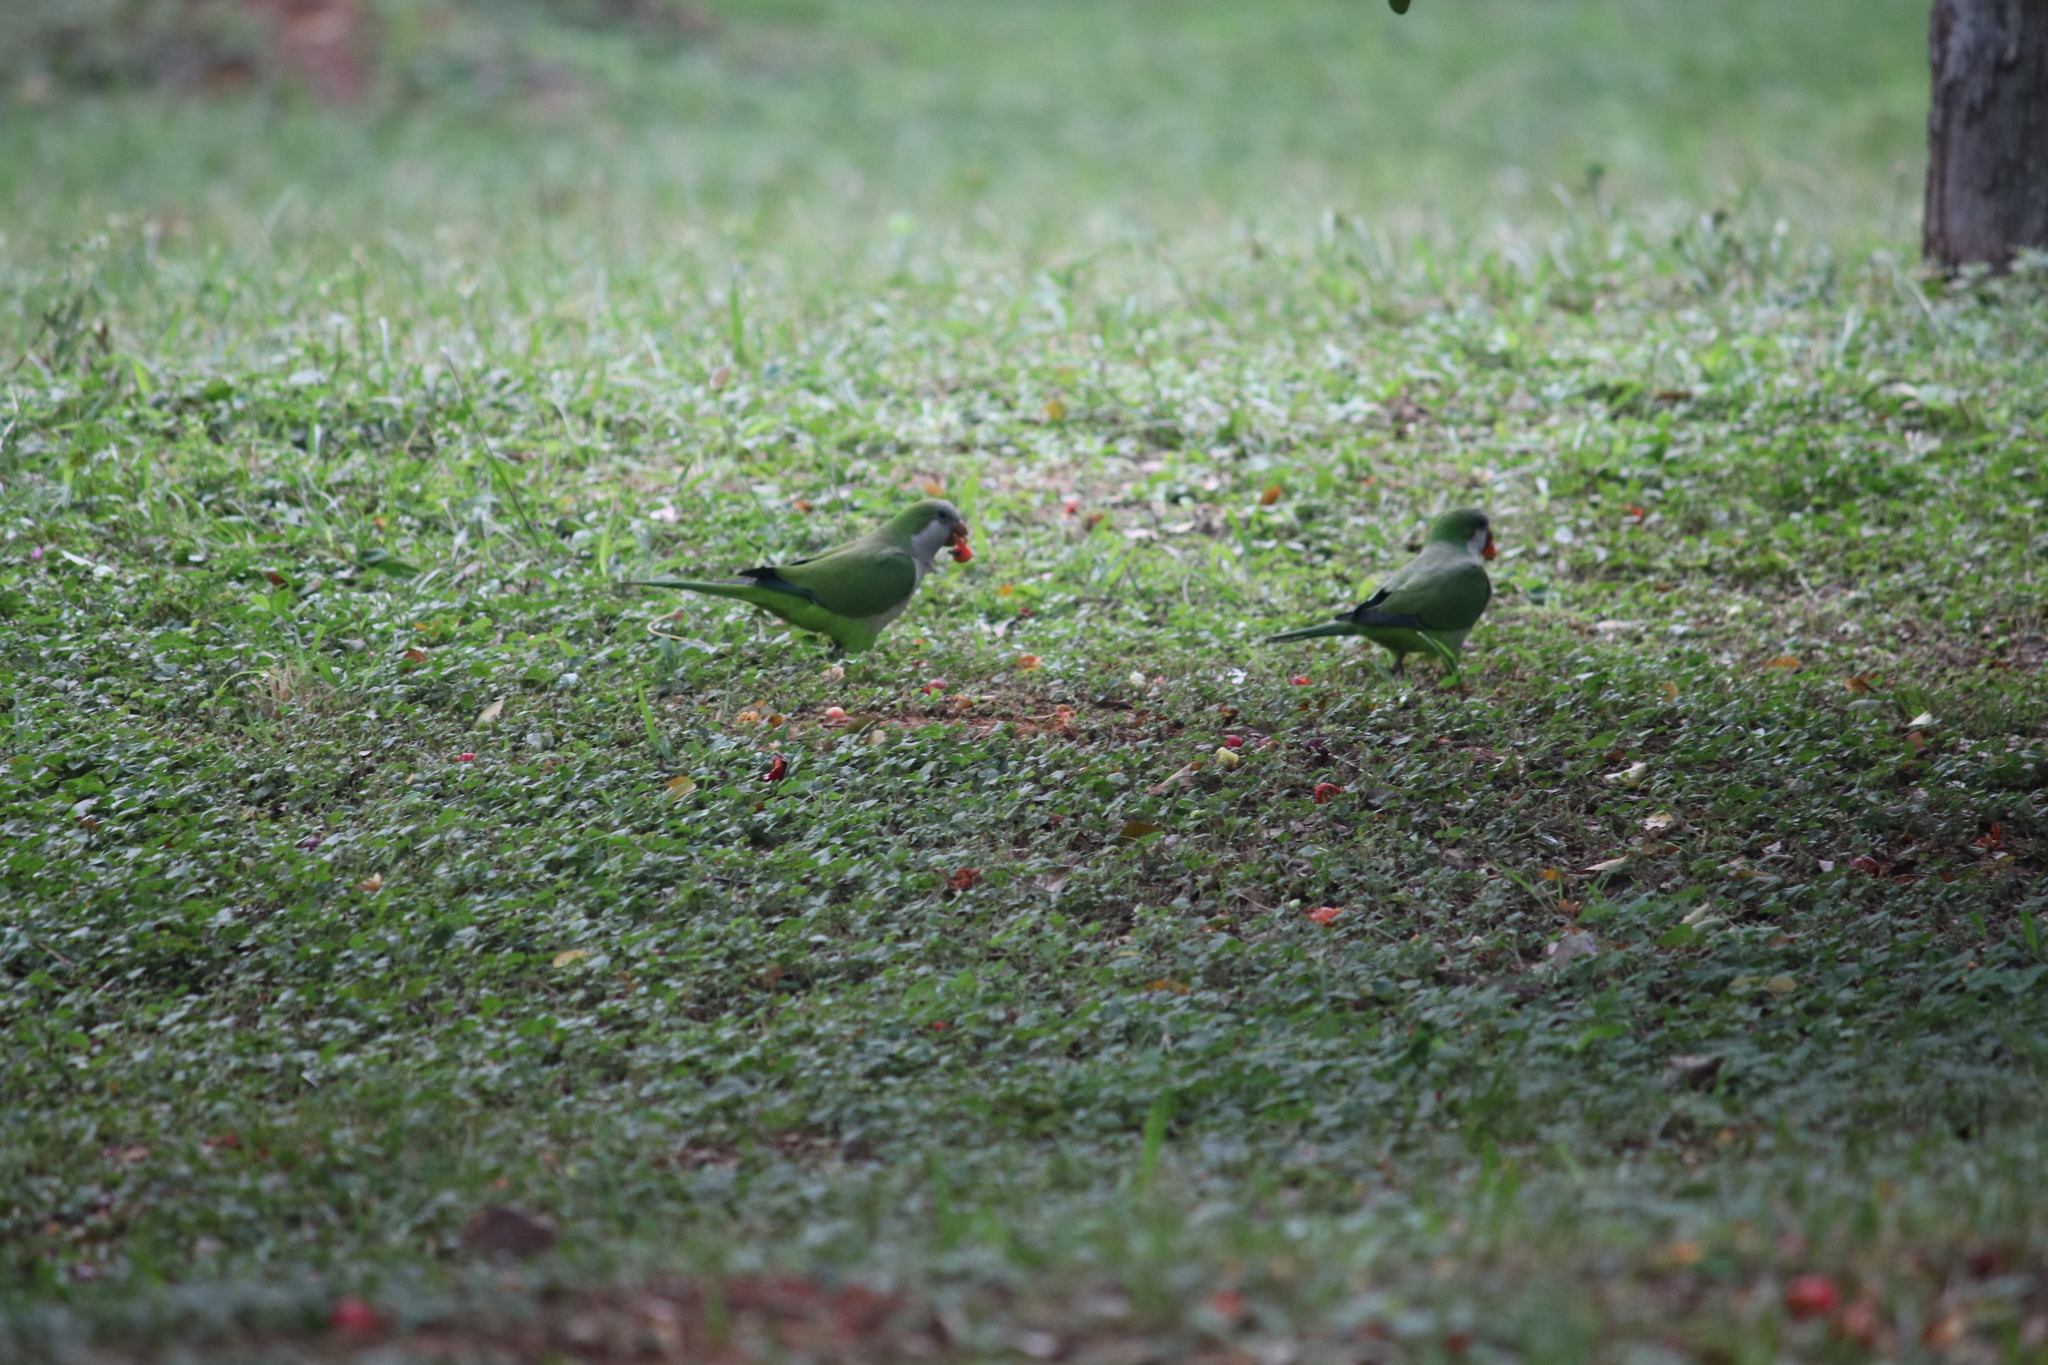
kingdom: Animalia
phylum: Chordata
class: Aves
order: Psittaciformes
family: Psittacidae
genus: Myiopsitta
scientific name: Myiopsitta monachus
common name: Monk parakeet
